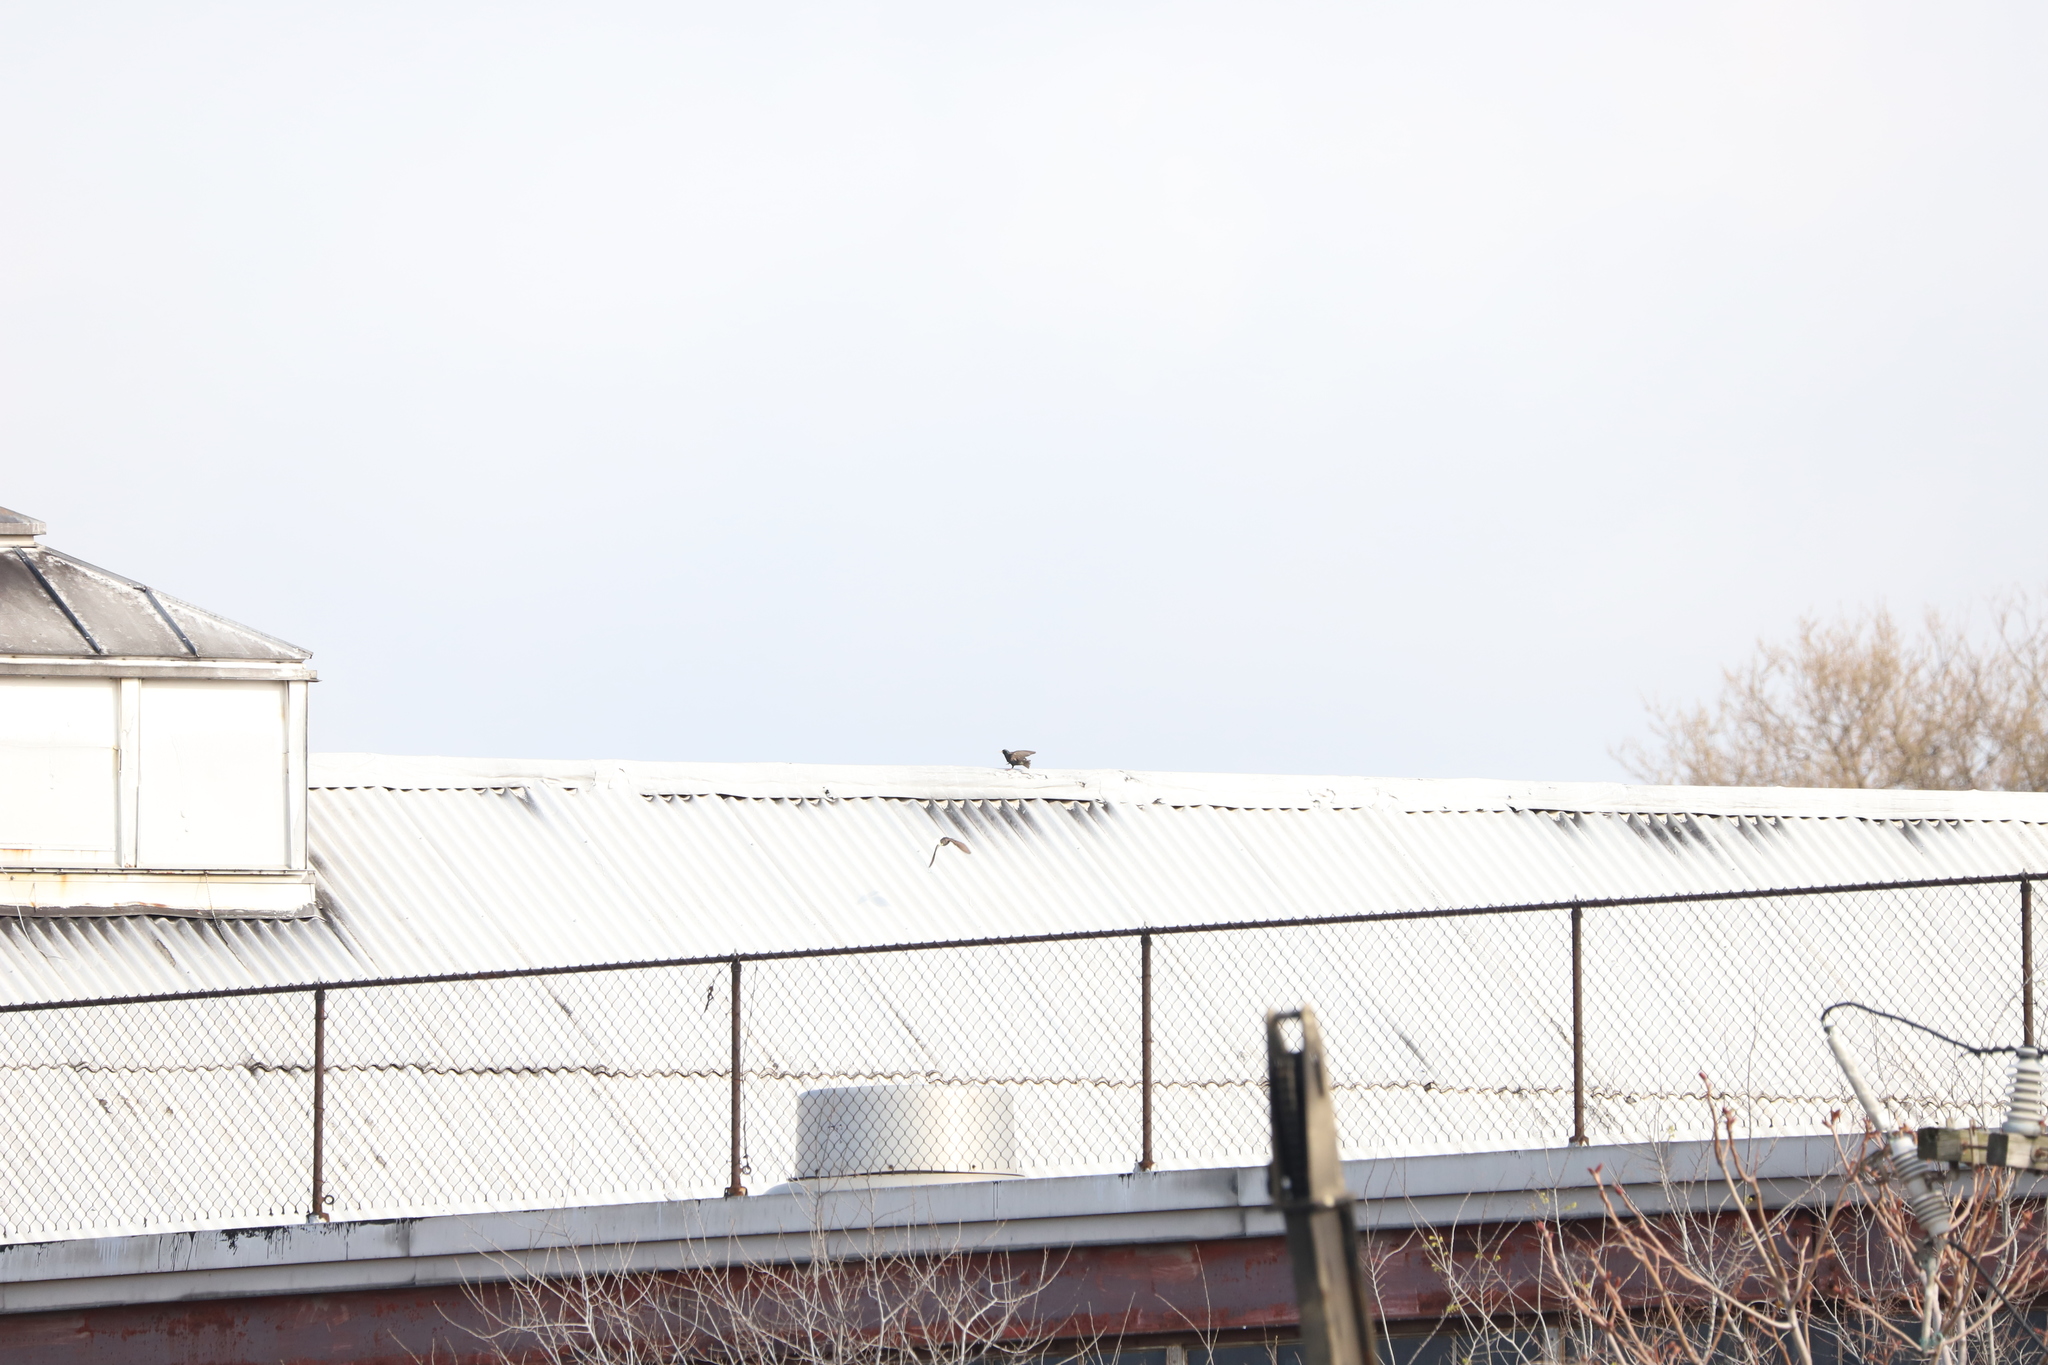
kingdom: Animalia
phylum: Chordata
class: Aves
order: Columbiformes
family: Columbidae
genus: Columba
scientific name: Columba livia
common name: Rock pigeon
